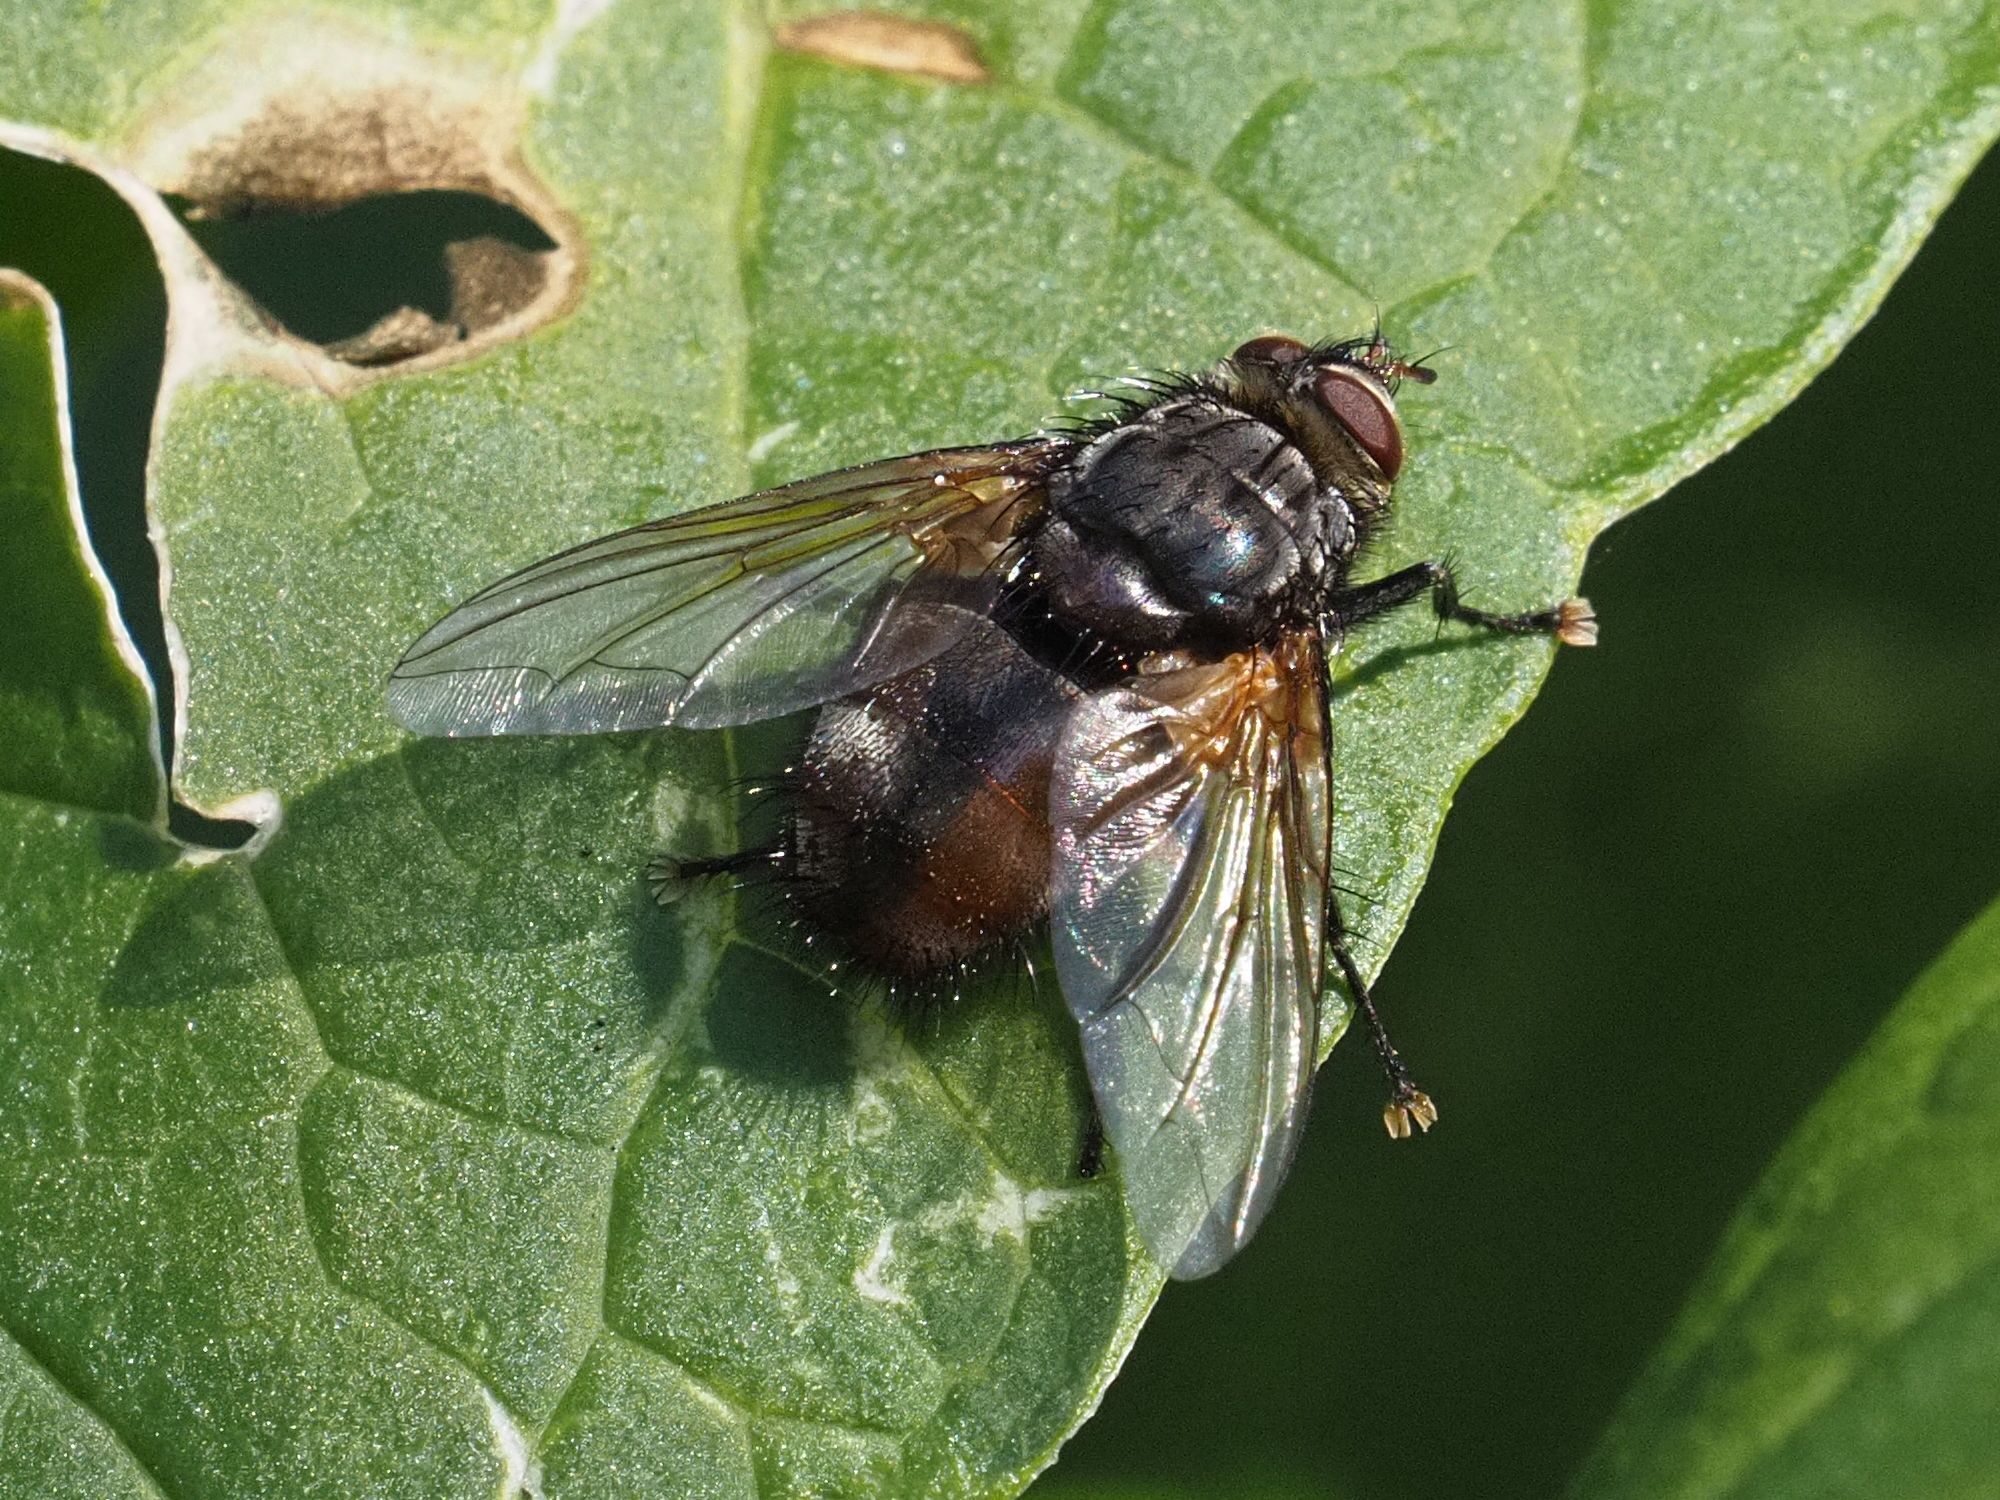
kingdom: Animalia
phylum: Arthropoda
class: Insecta
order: Diptera
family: Tachinidae
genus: Nemoraea
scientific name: Nemoraea pellucida
